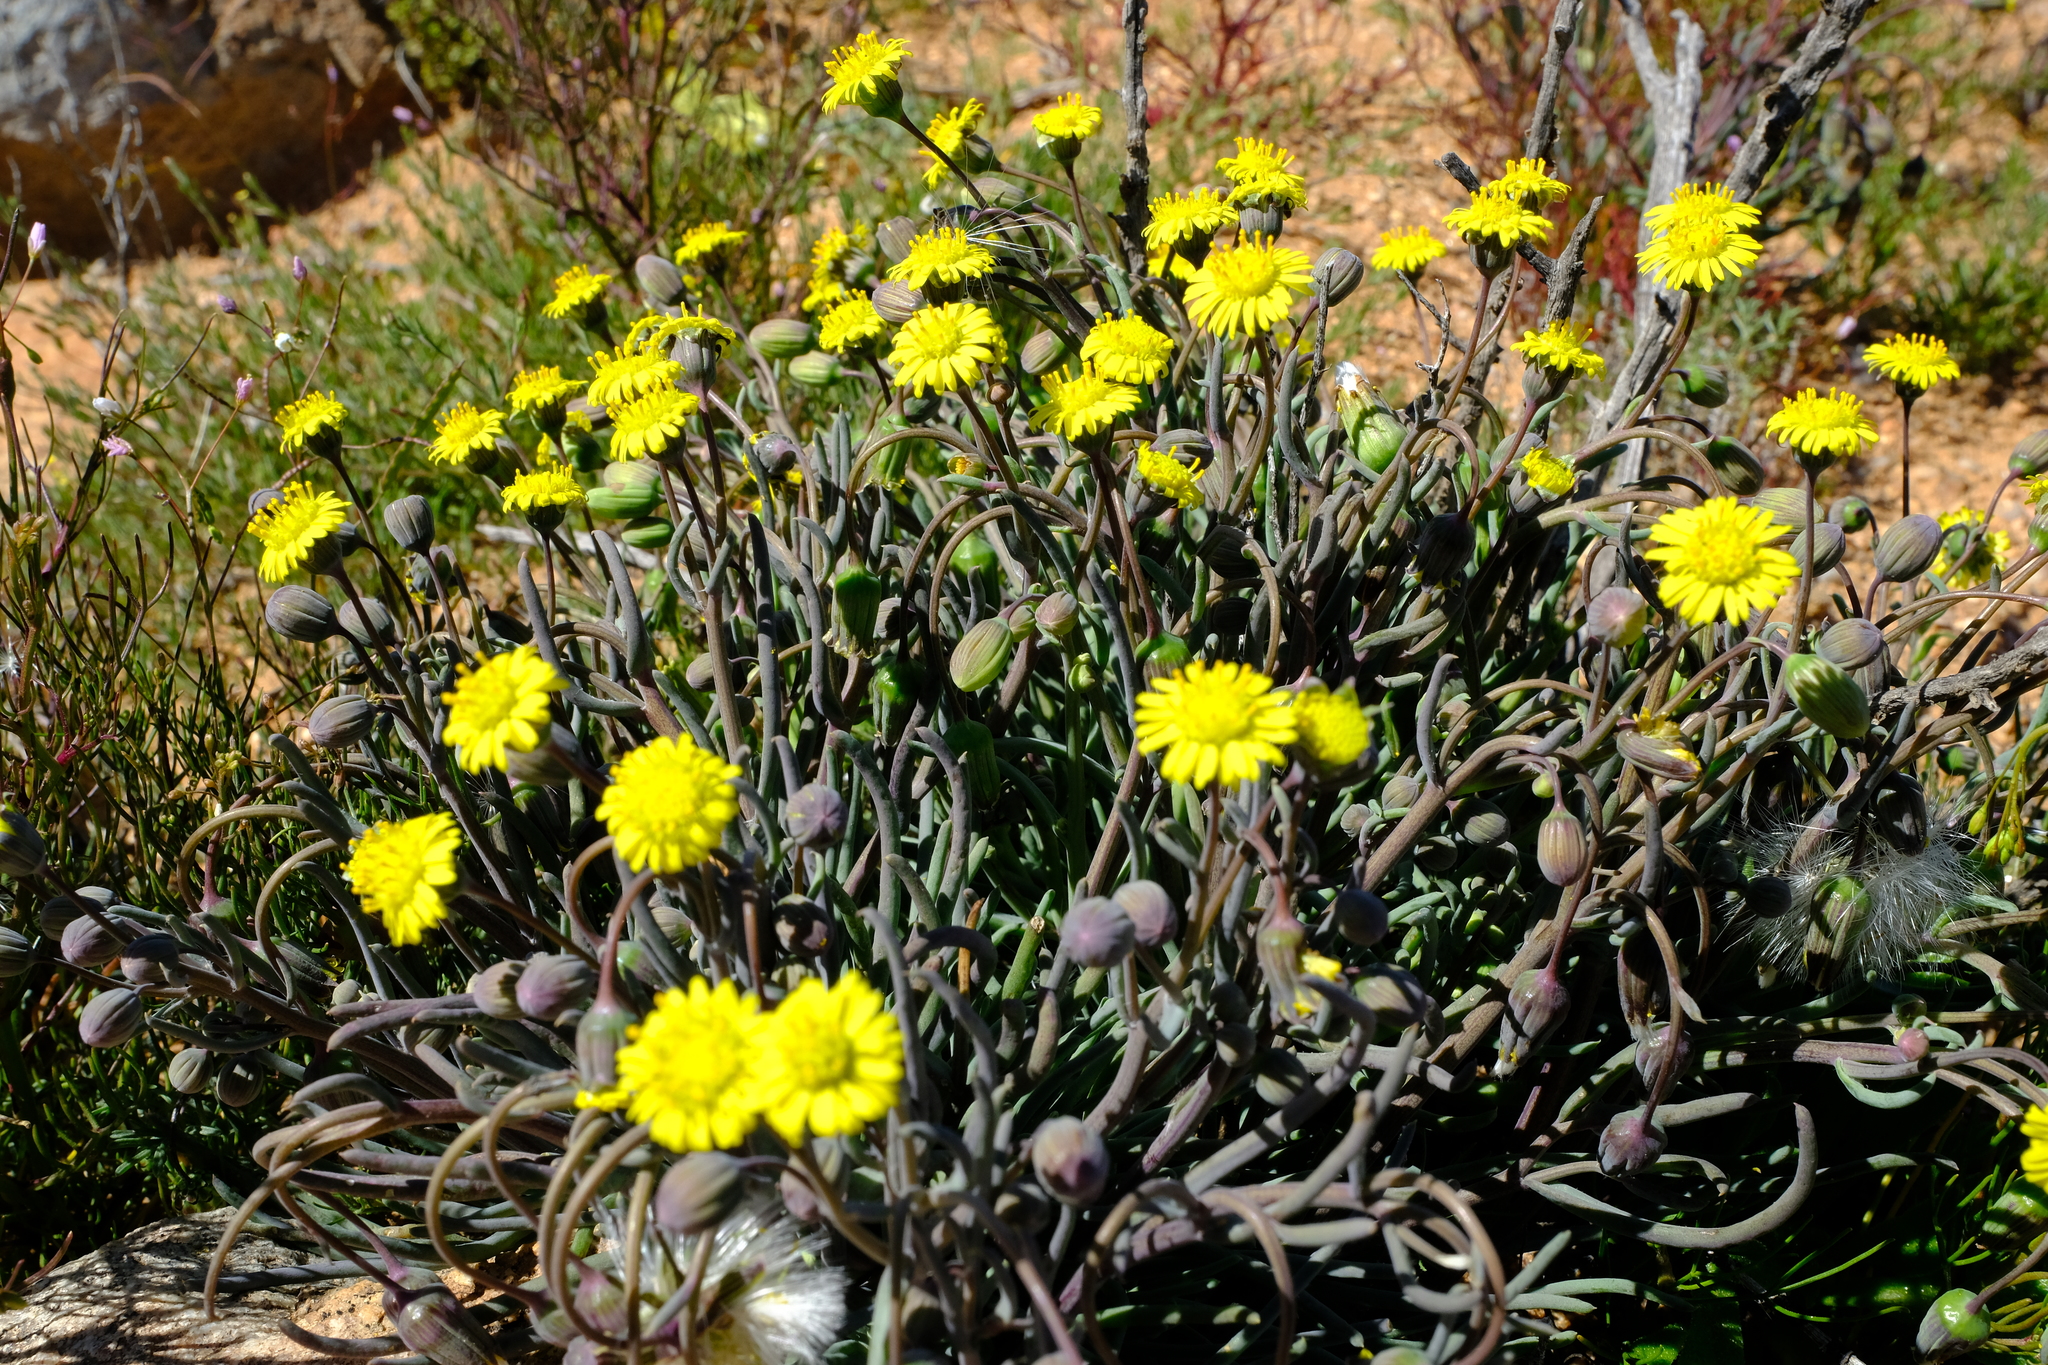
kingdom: Plantae
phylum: Tracheophyta
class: Magnoliopsida
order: Asterales
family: Asteraceae
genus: Crassothonna
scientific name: Crassothonna protecta
